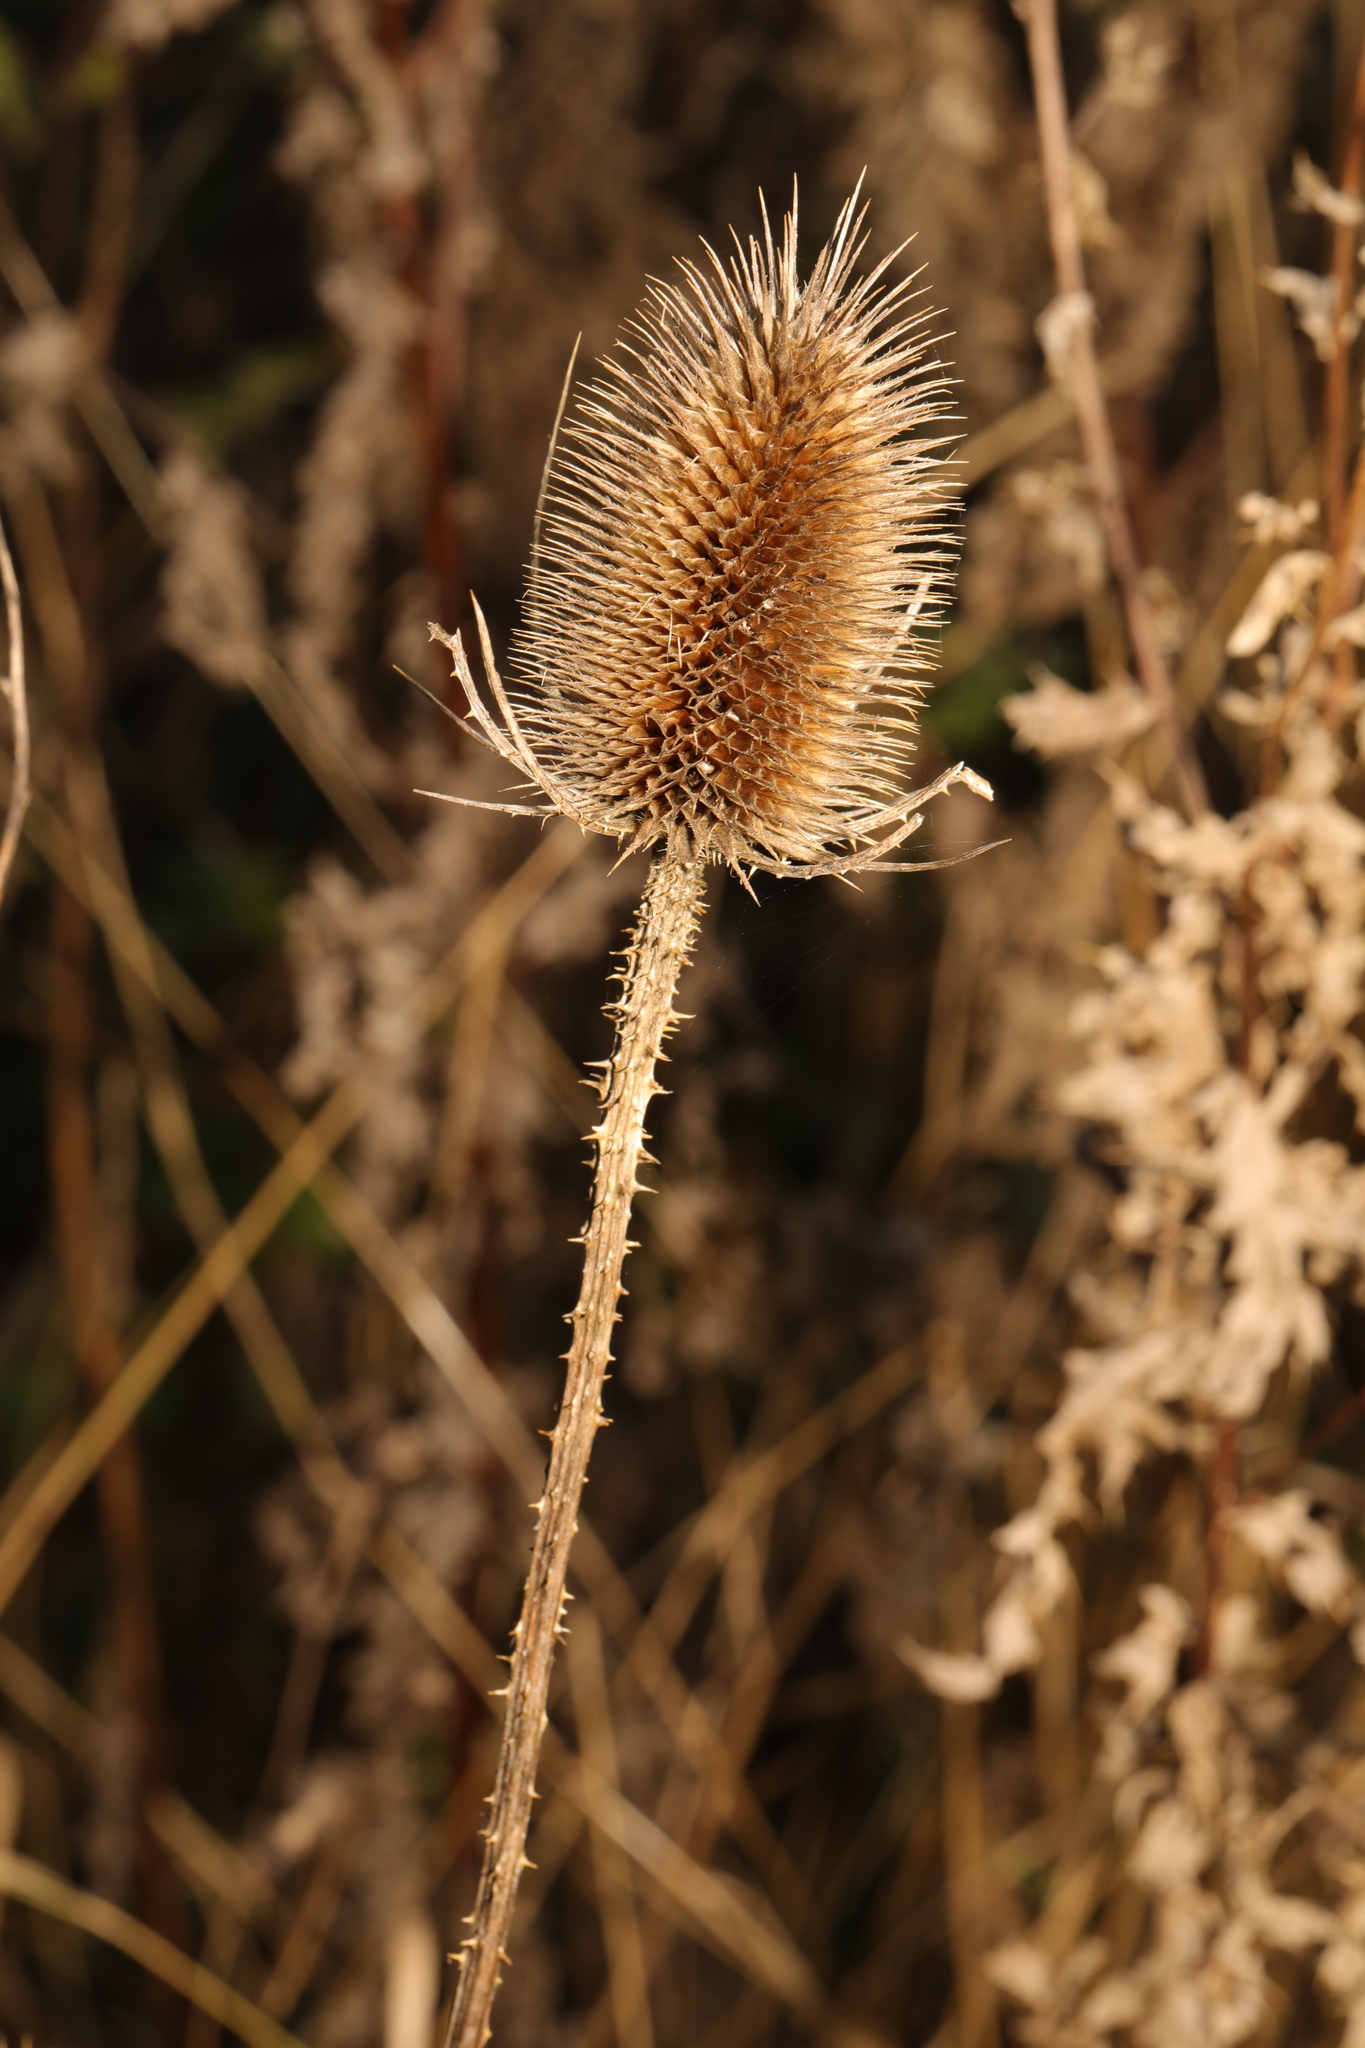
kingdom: Plantae
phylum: Tracheophyta
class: Magnoliopsida
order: Dipsacales
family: Caprifoliaceae
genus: Dipsacus
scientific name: Dipsacus fullonum
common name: Teasel
